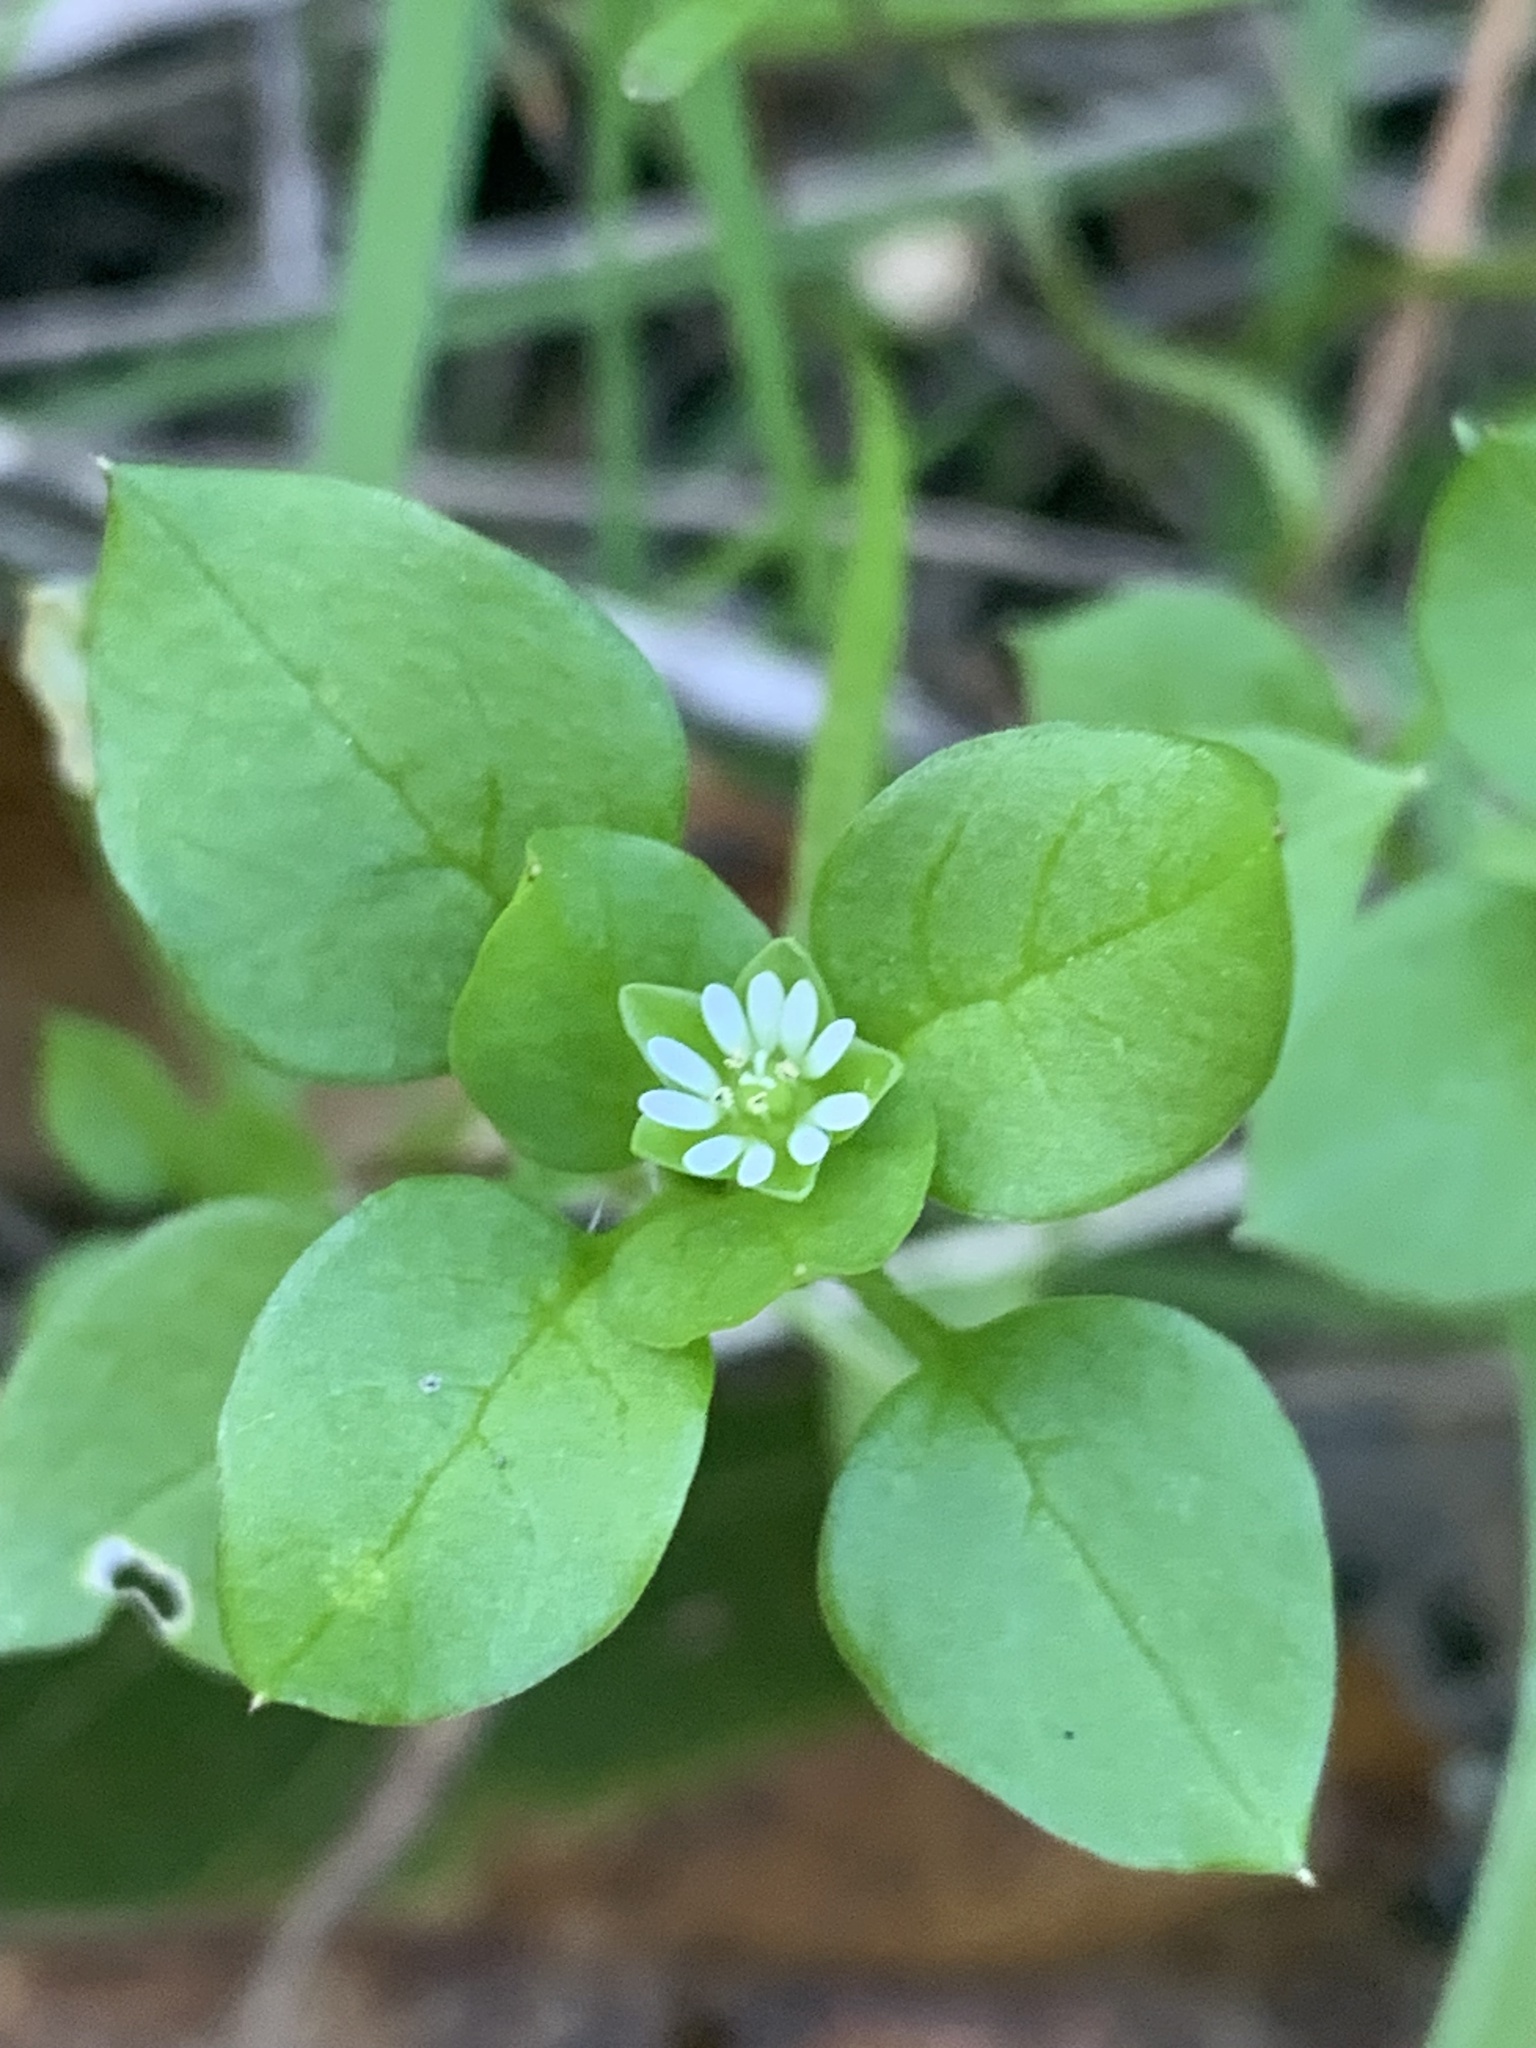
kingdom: Plantae
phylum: Tracheophyta
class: Magnoliopsida
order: Caryophyllales
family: Caryophyllaceae
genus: Stellaria
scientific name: Stellaria media
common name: Common chickweed
